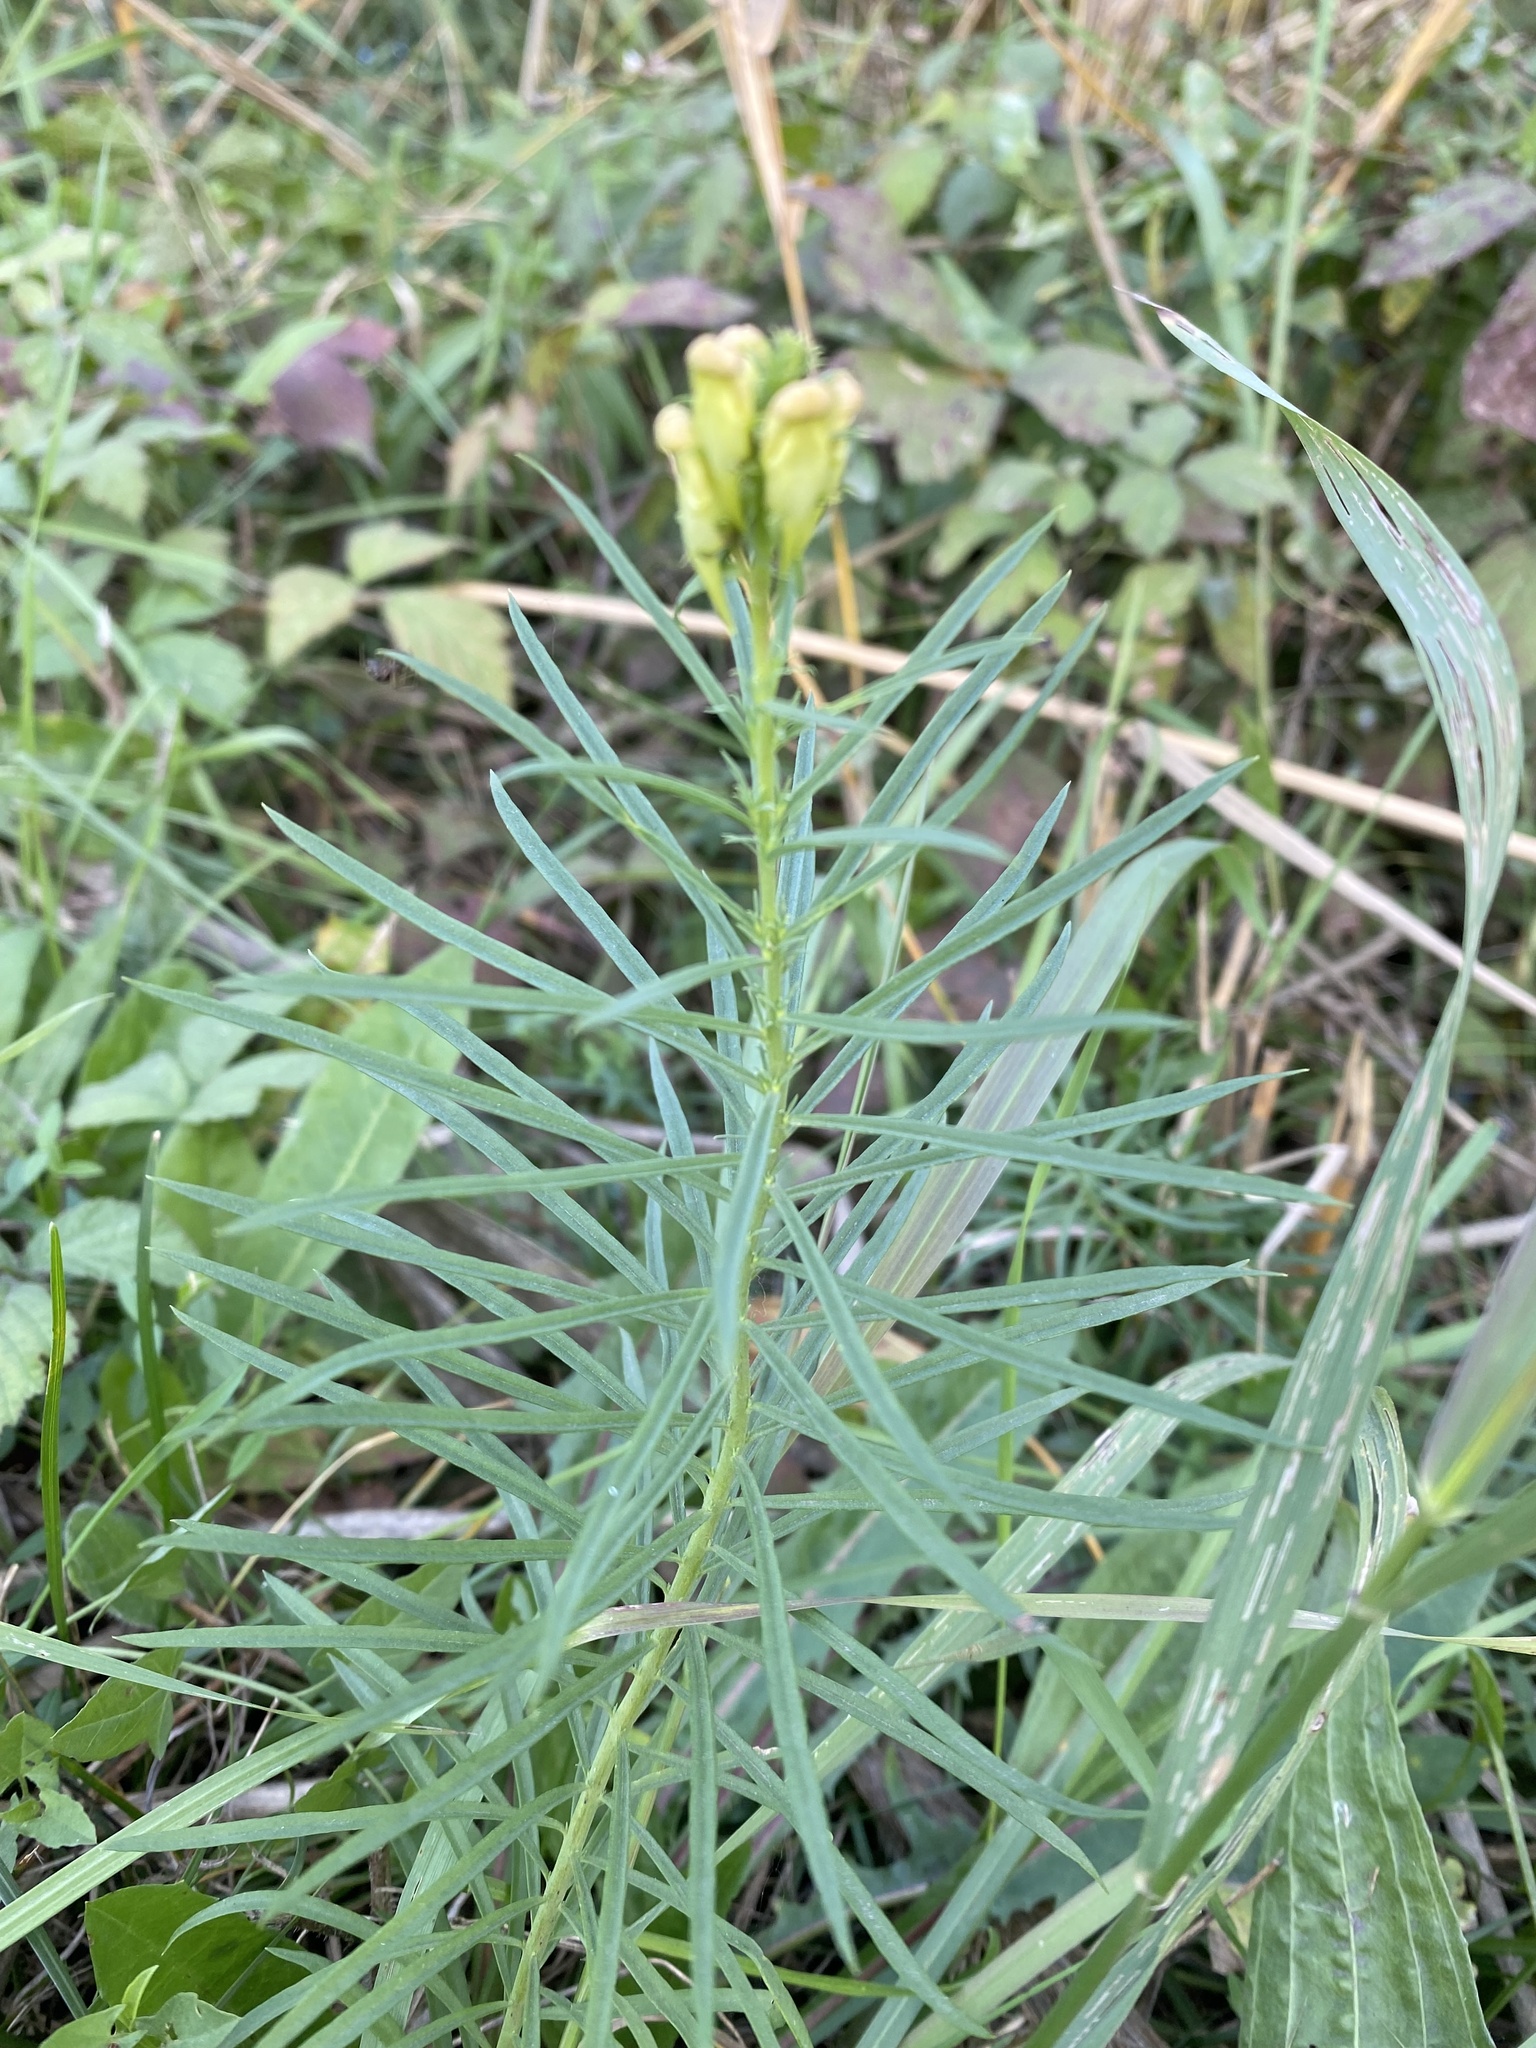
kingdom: Plantae
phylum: Tracheophyta
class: Magnoliopsida
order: Lamiales
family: Plantaginaceae
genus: Linaria
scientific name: Linaria vulgaris
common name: Butter and eggs
